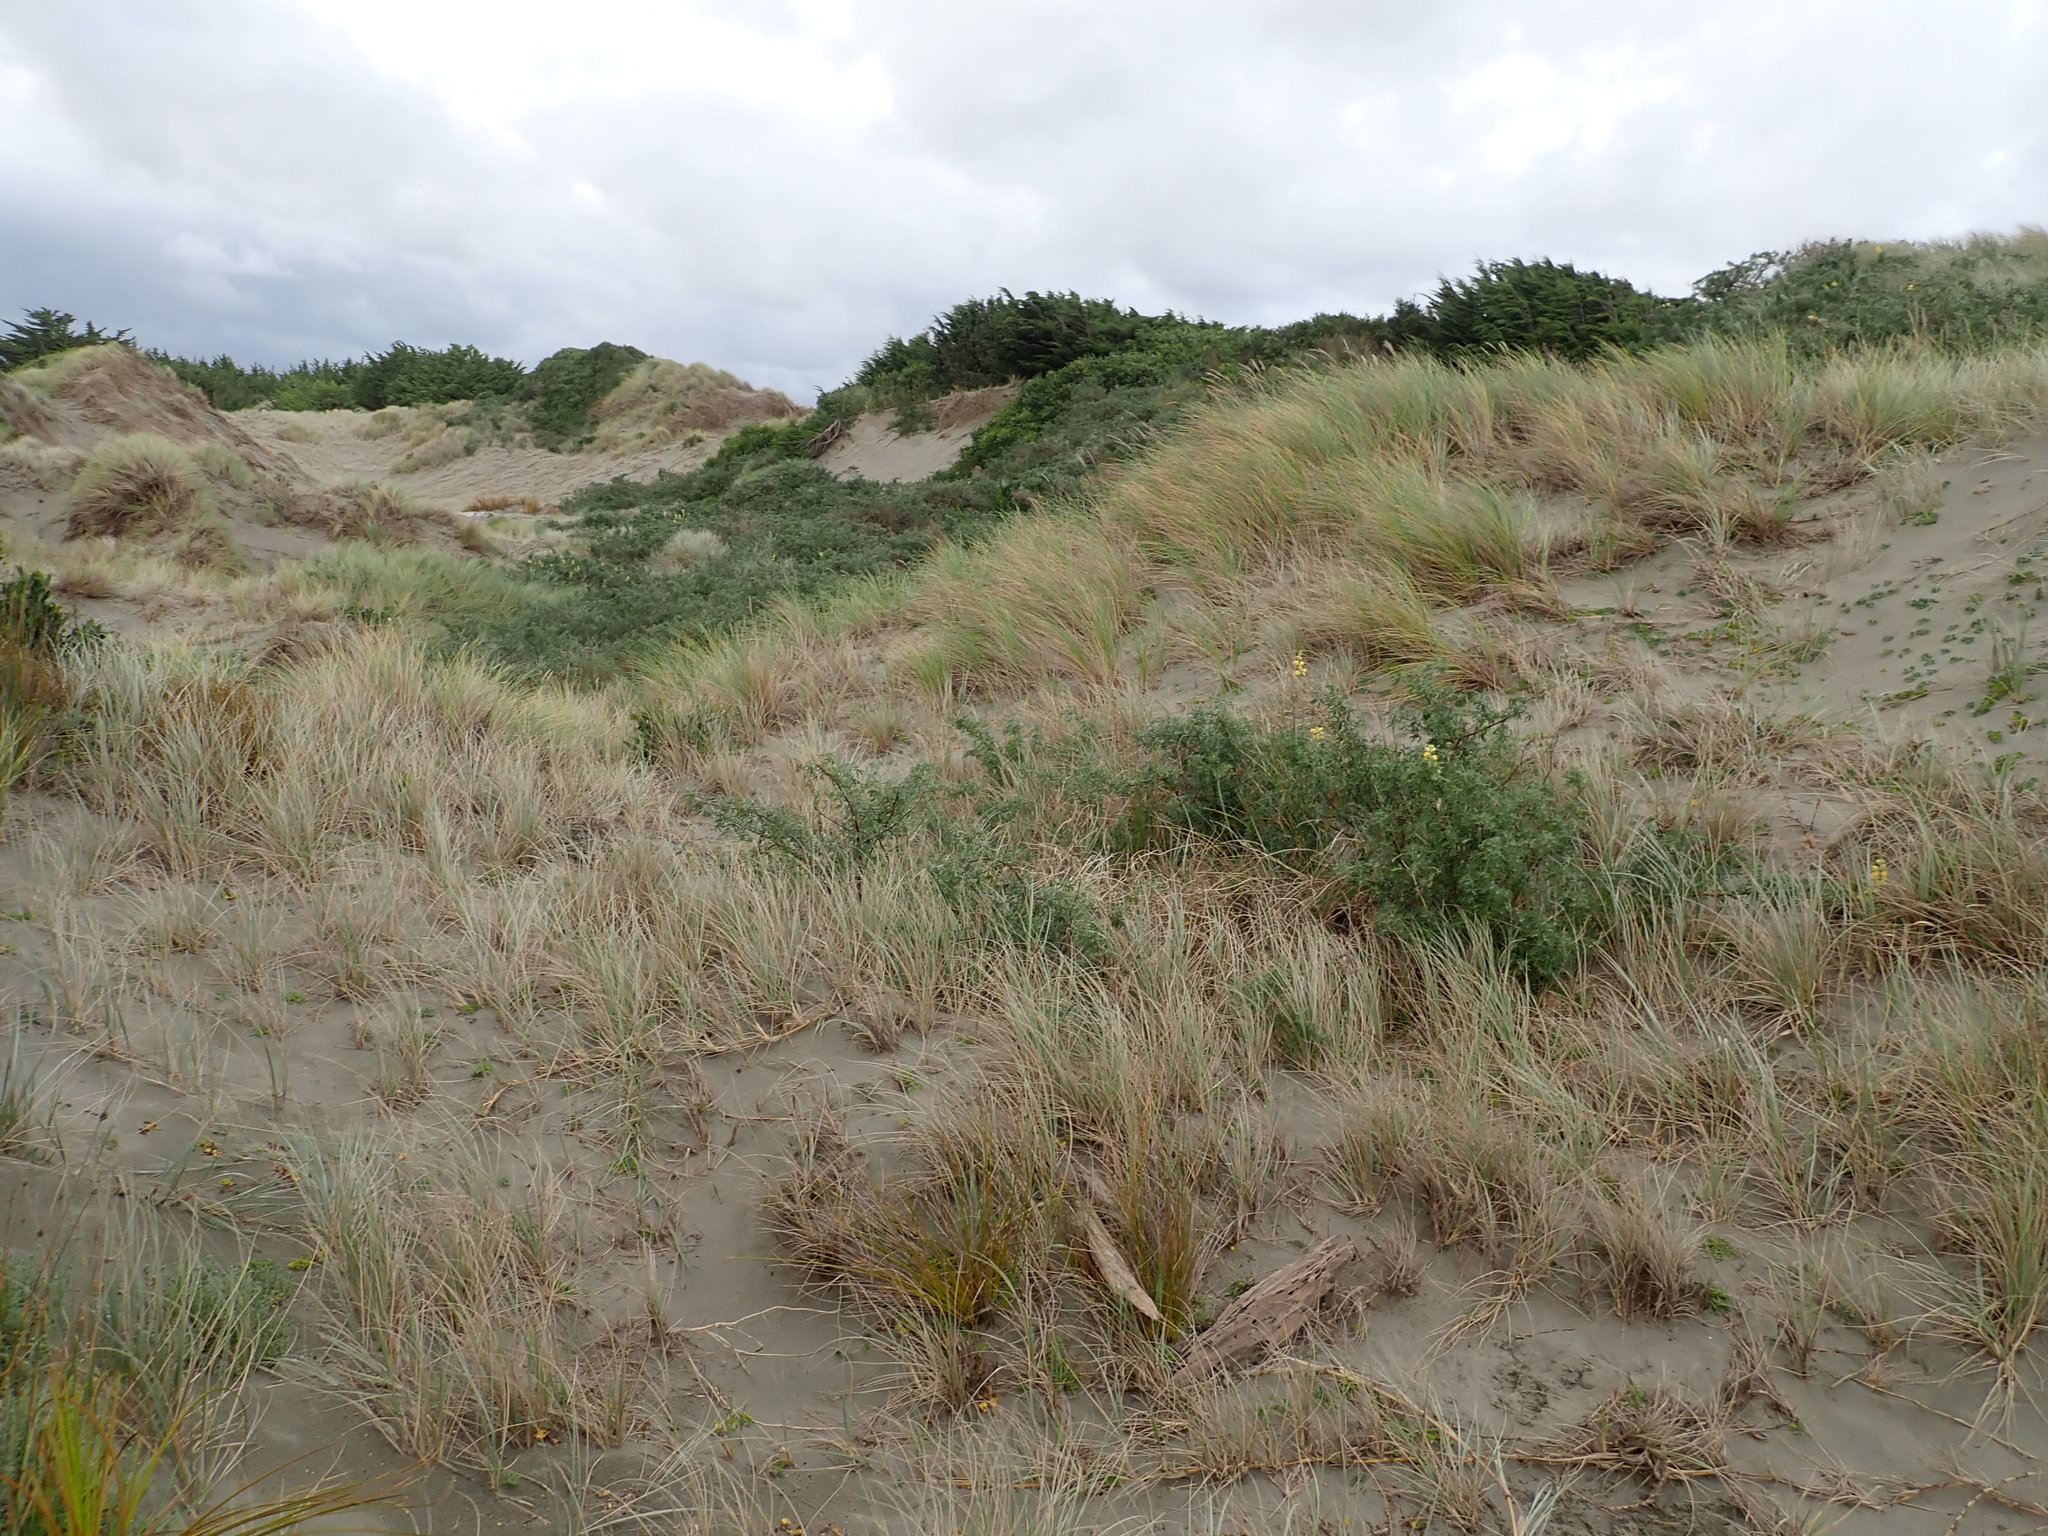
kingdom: Plantae
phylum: Tracheophyta
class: Magnoliopsida
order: Fabales
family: Fabaceae
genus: Lupinus
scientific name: Lupinus arboreus
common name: Yellow bush lupine
